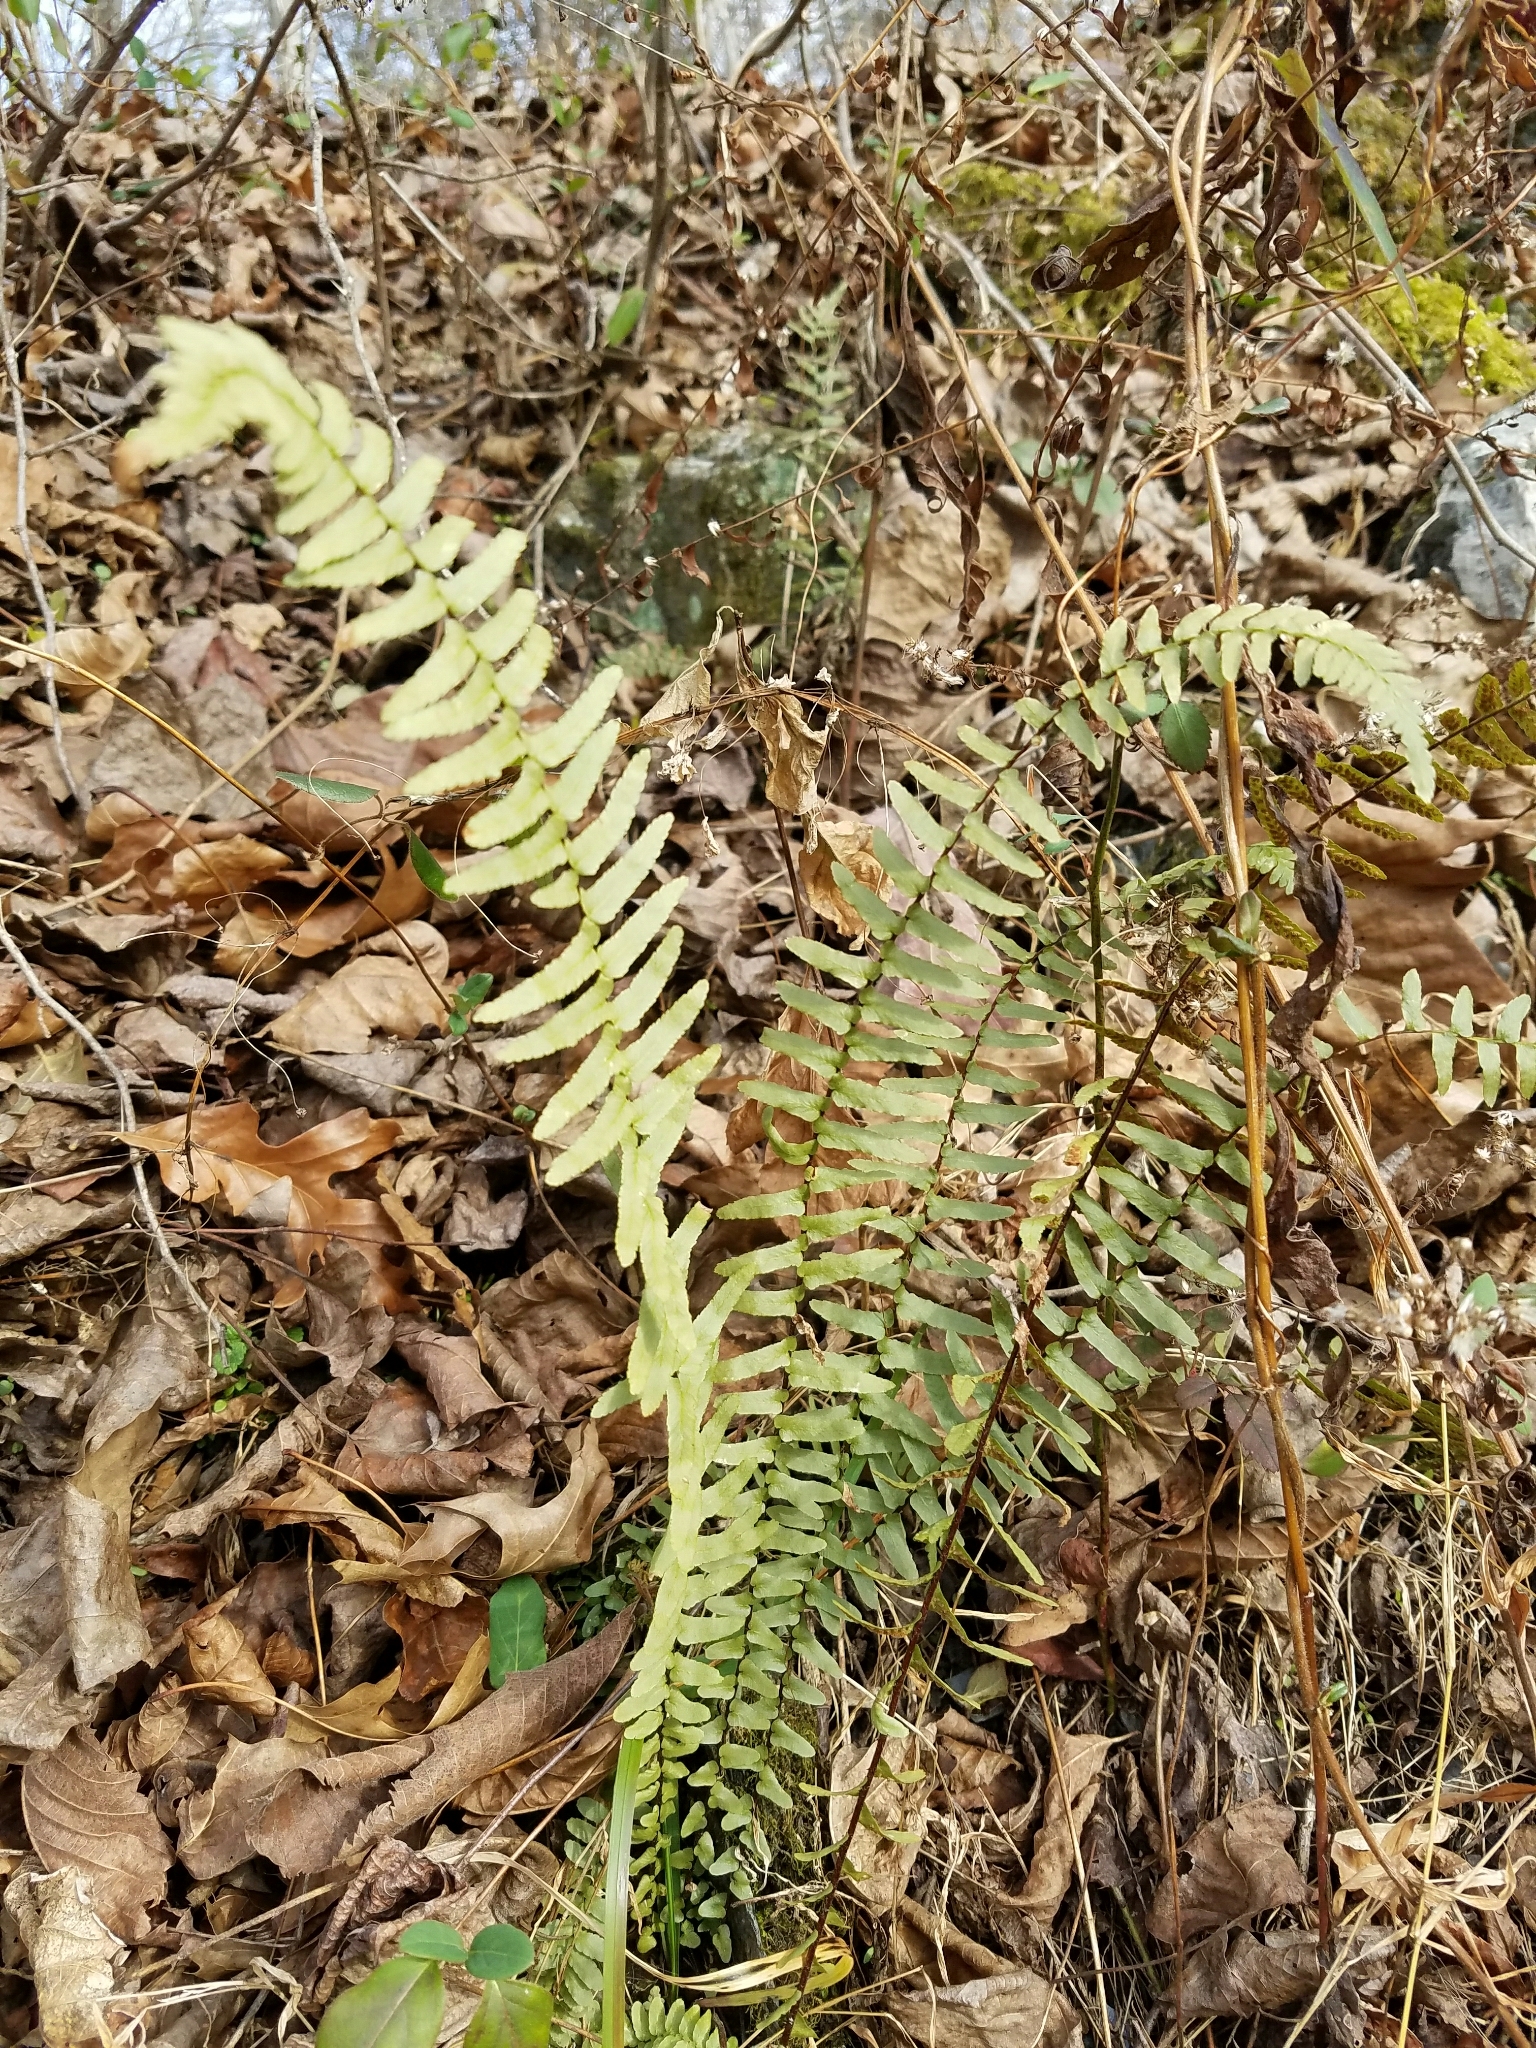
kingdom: Plantae
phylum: Tracheophyta
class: Polypodiopsida
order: Polypodiales
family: Aspleniaceae
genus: Asplenium
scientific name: Asplenium platyneuron
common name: Ebony spleenwort
